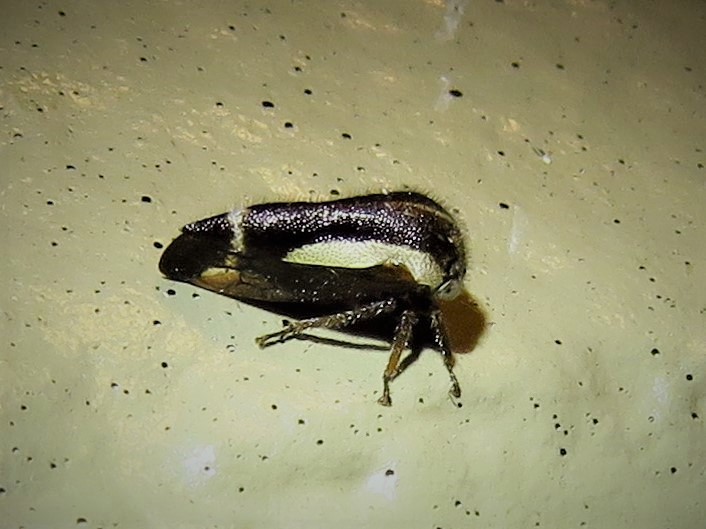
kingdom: Animalia
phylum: Arthropoda
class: Insecta
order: Hemiptera
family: Membracidae
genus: Ophiderma
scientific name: Ophiderma flavicephala
